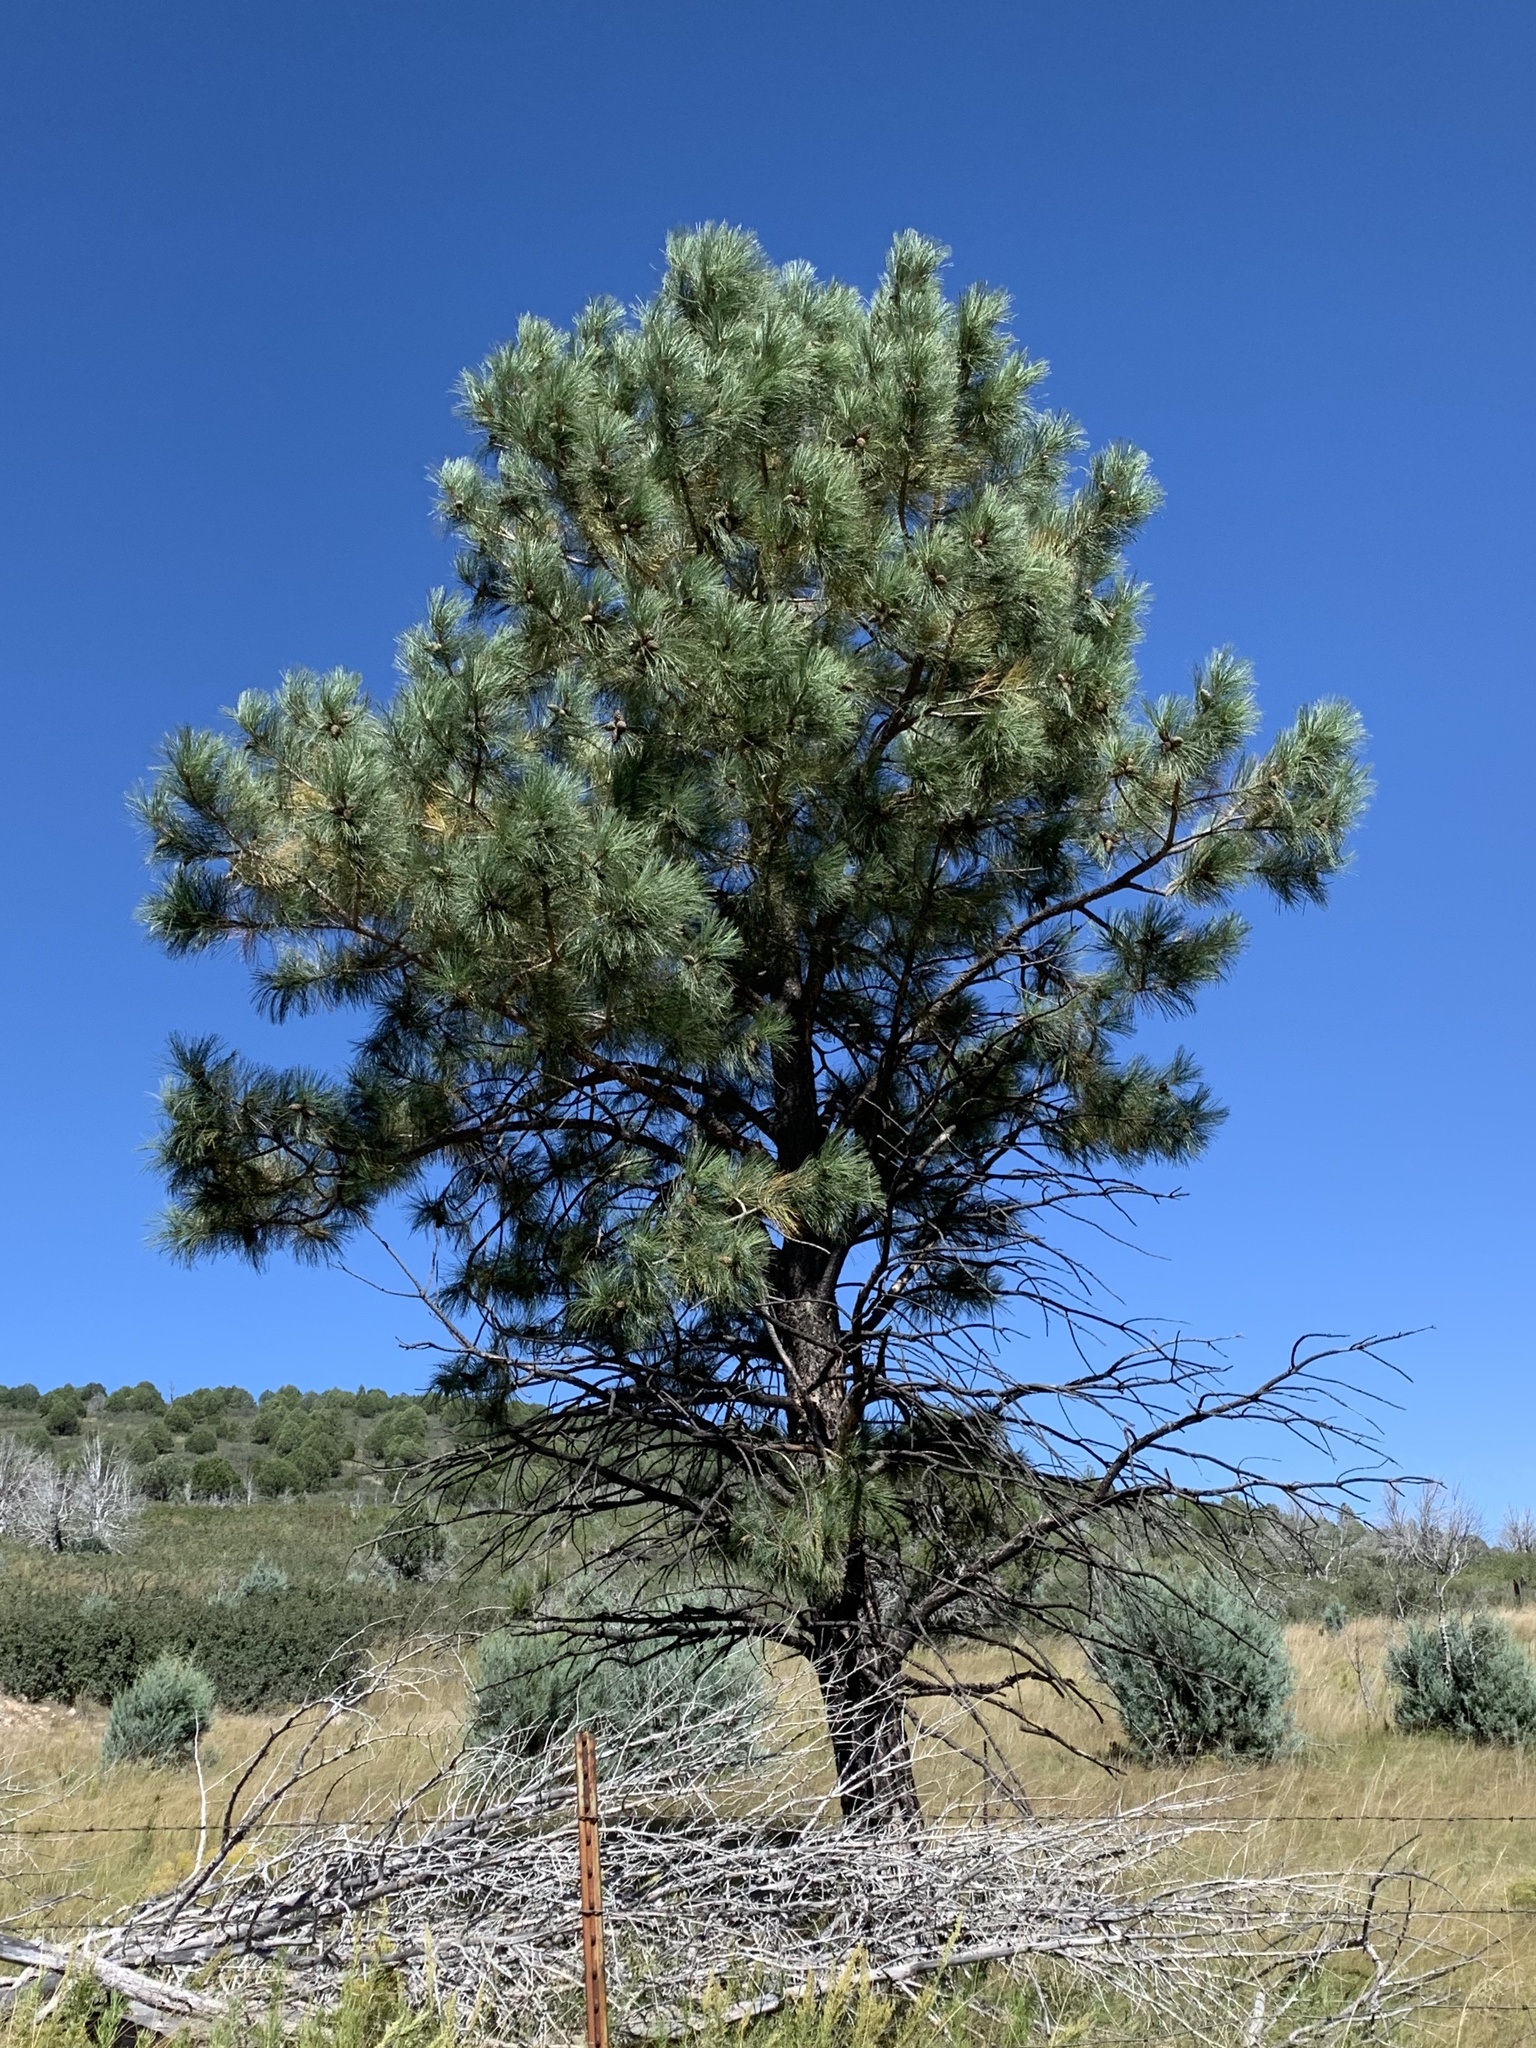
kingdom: Plantae
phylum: Tracheophyta
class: Pinopsida
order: Pinales
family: Pinaceae
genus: Pinus
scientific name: Pinus ponderosa
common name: Western yellow-pine
